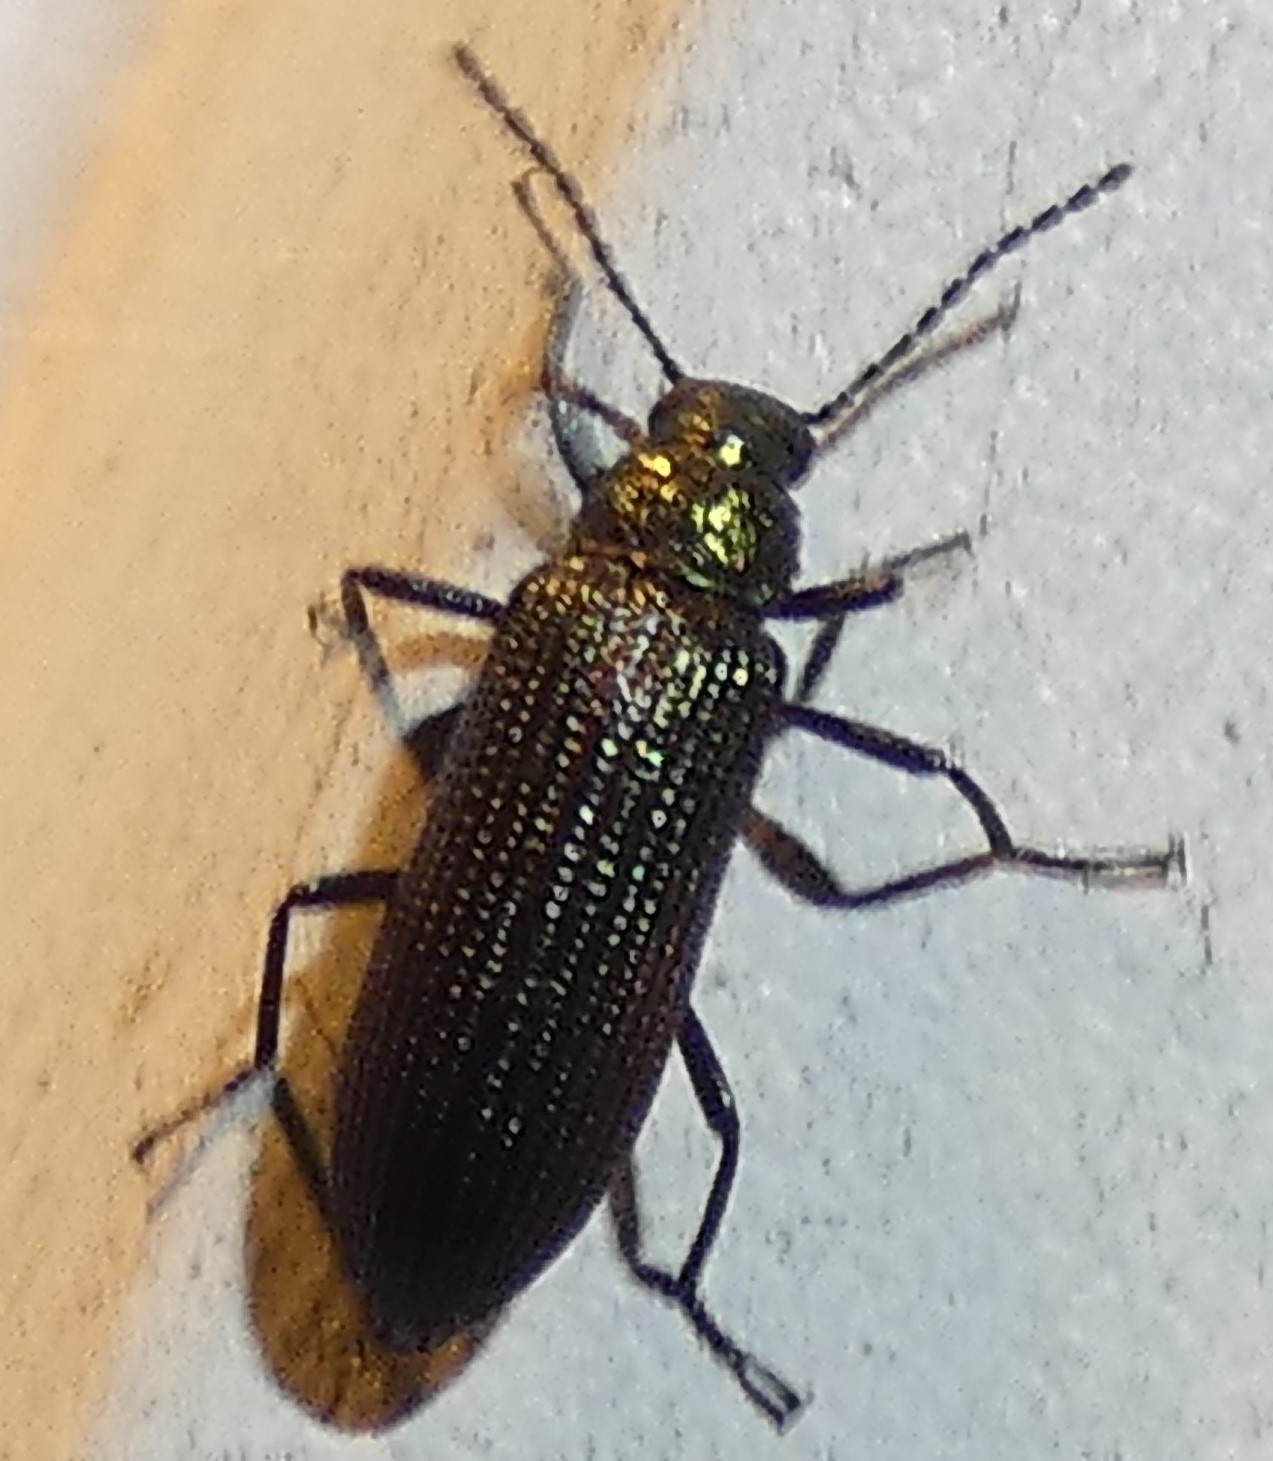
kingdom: Animalia
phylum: Arthropoda
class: Insecta
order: Coleoptera
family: Tenebrionidae
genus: Strongylium
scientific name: Strongylium
